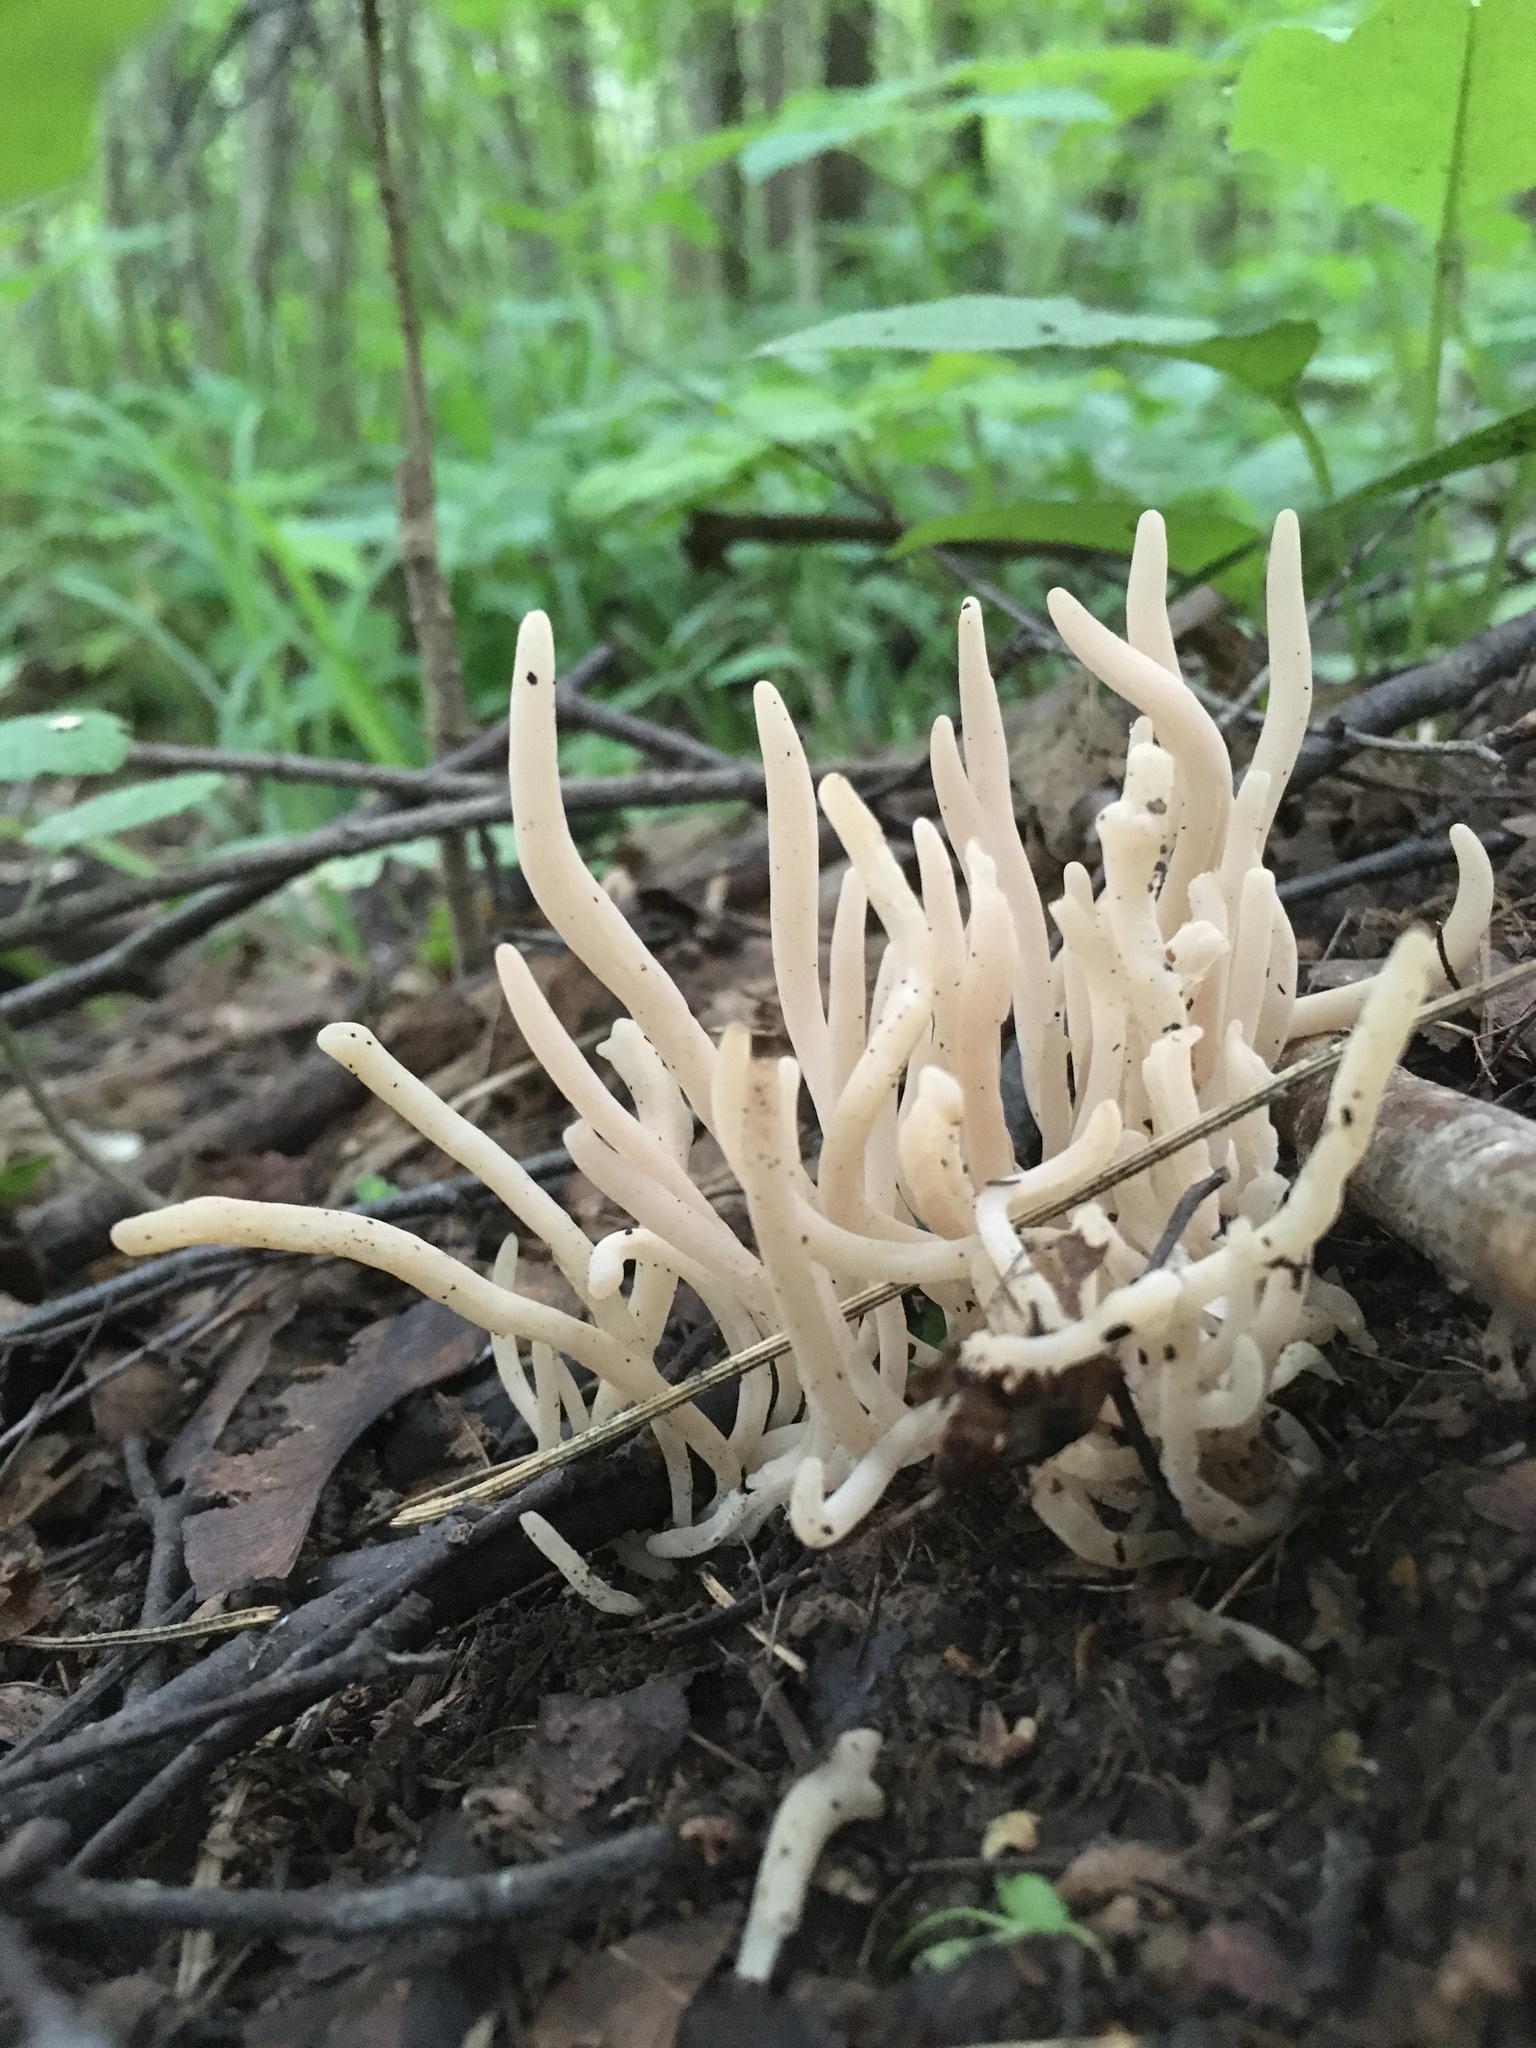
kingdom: Fungi
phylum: Basidiomycota
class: Agaricomycetes
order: Agaricales
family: Clavariaceae
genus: Clavaria
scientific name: Clavaria fragilis
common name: White spindles
